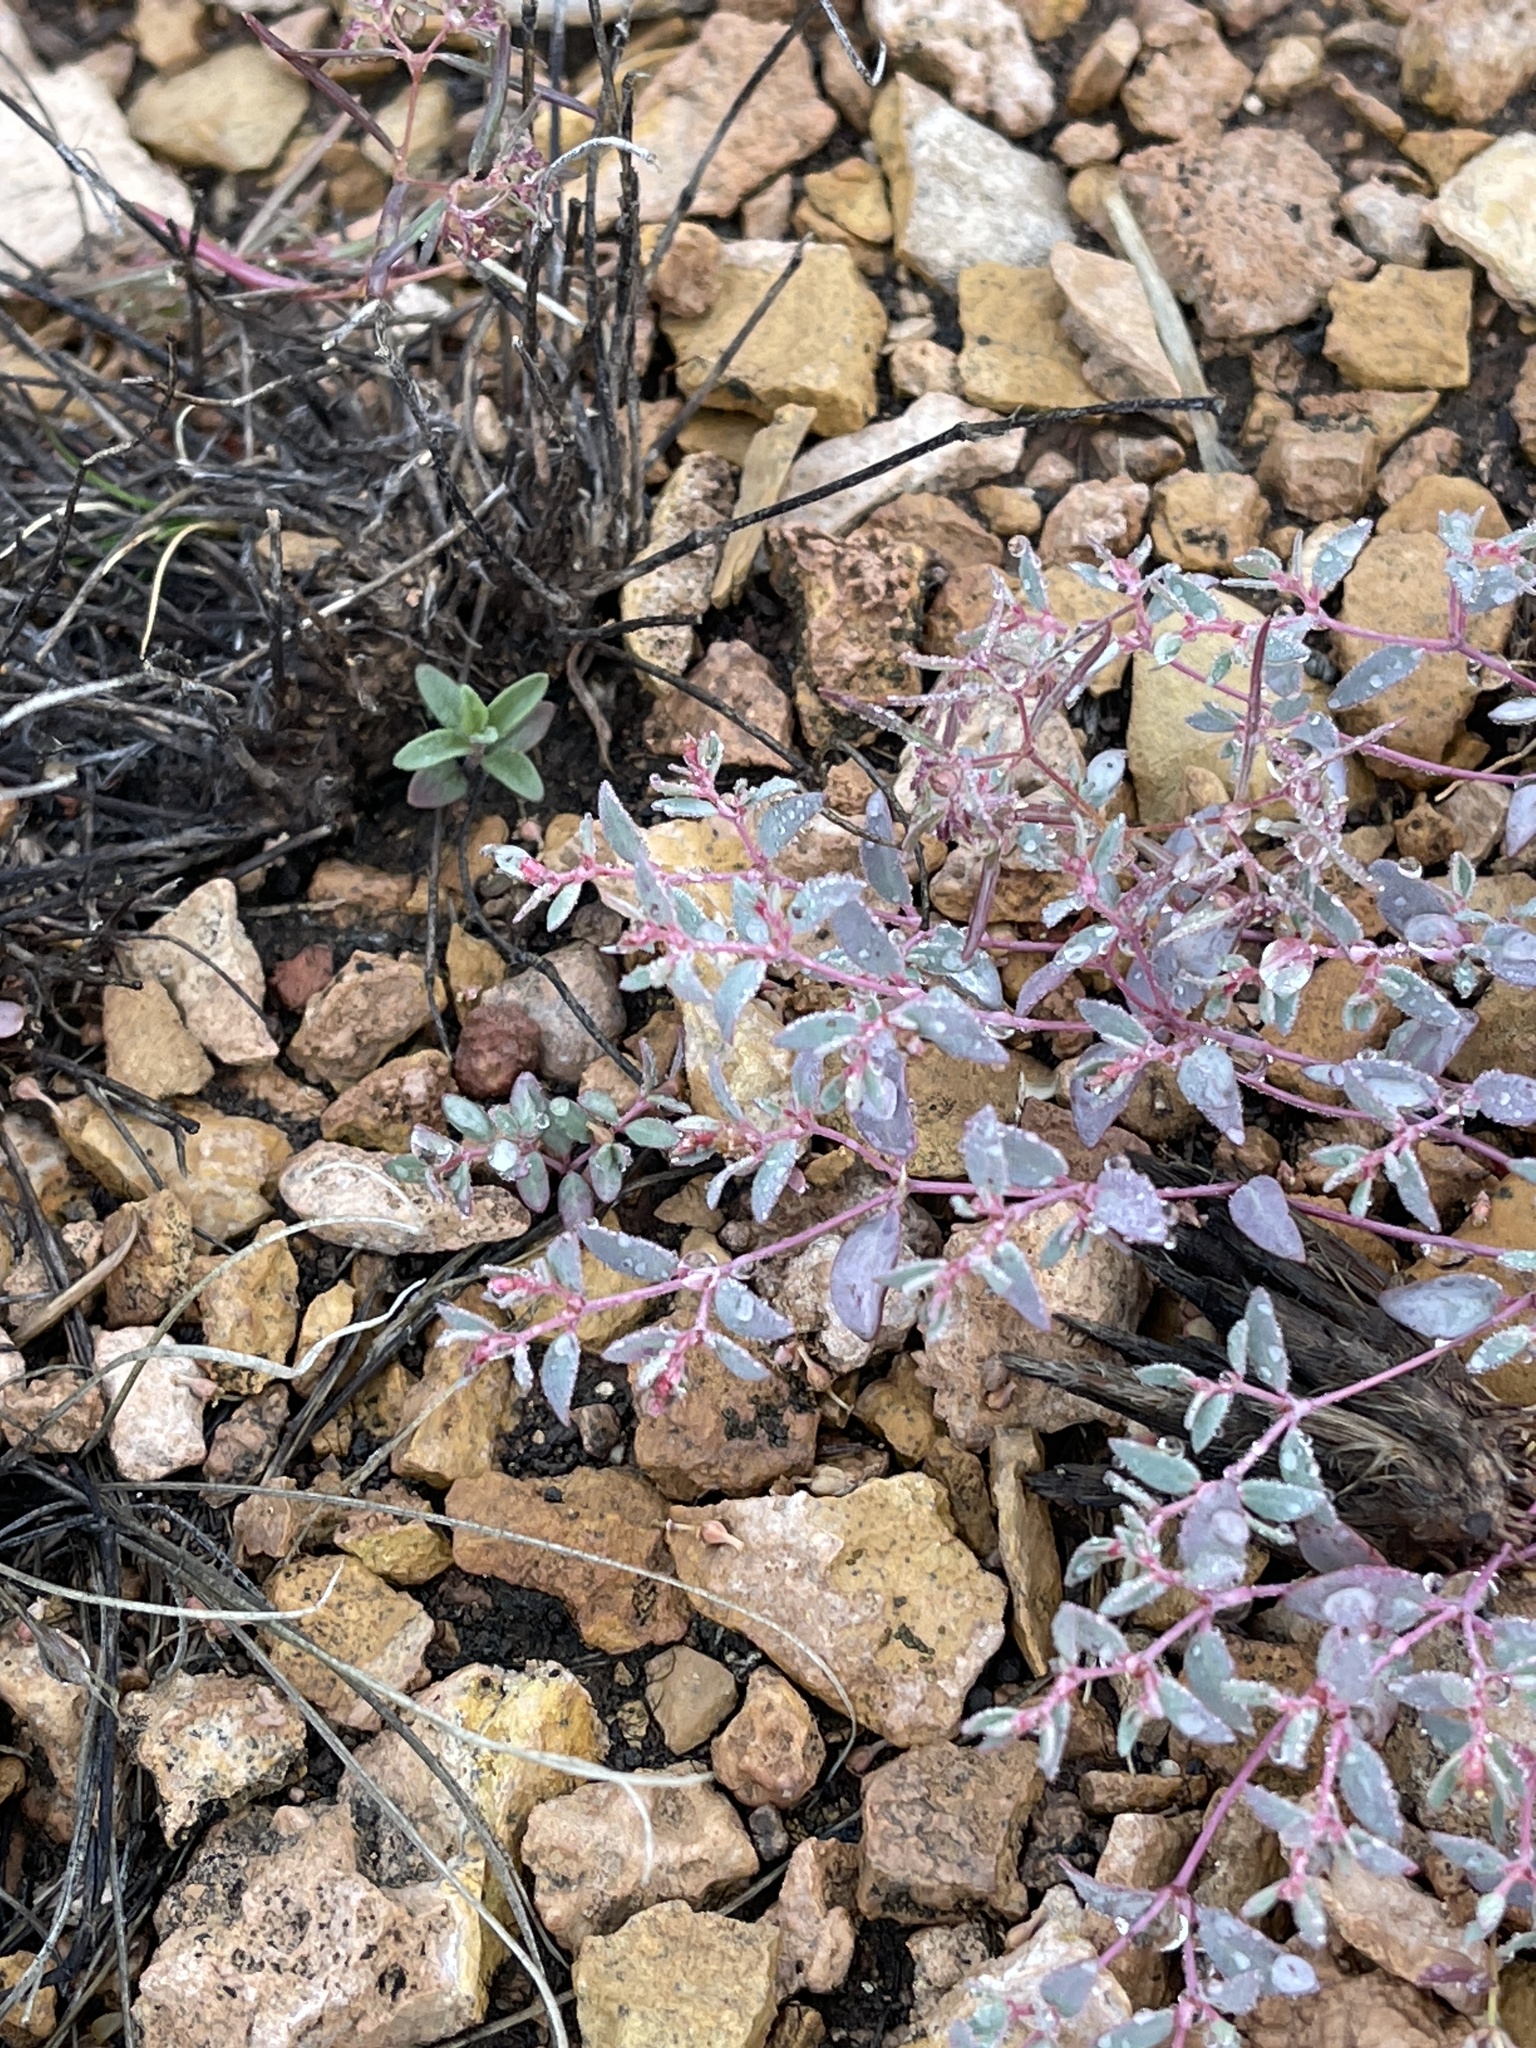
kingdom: Plantae
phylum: Tracheophyta
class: Magnoliopsida
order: Malpighiales
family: Euphorbiaceae
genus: Euphorbia
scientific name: Euphorbia chaetocalyx
